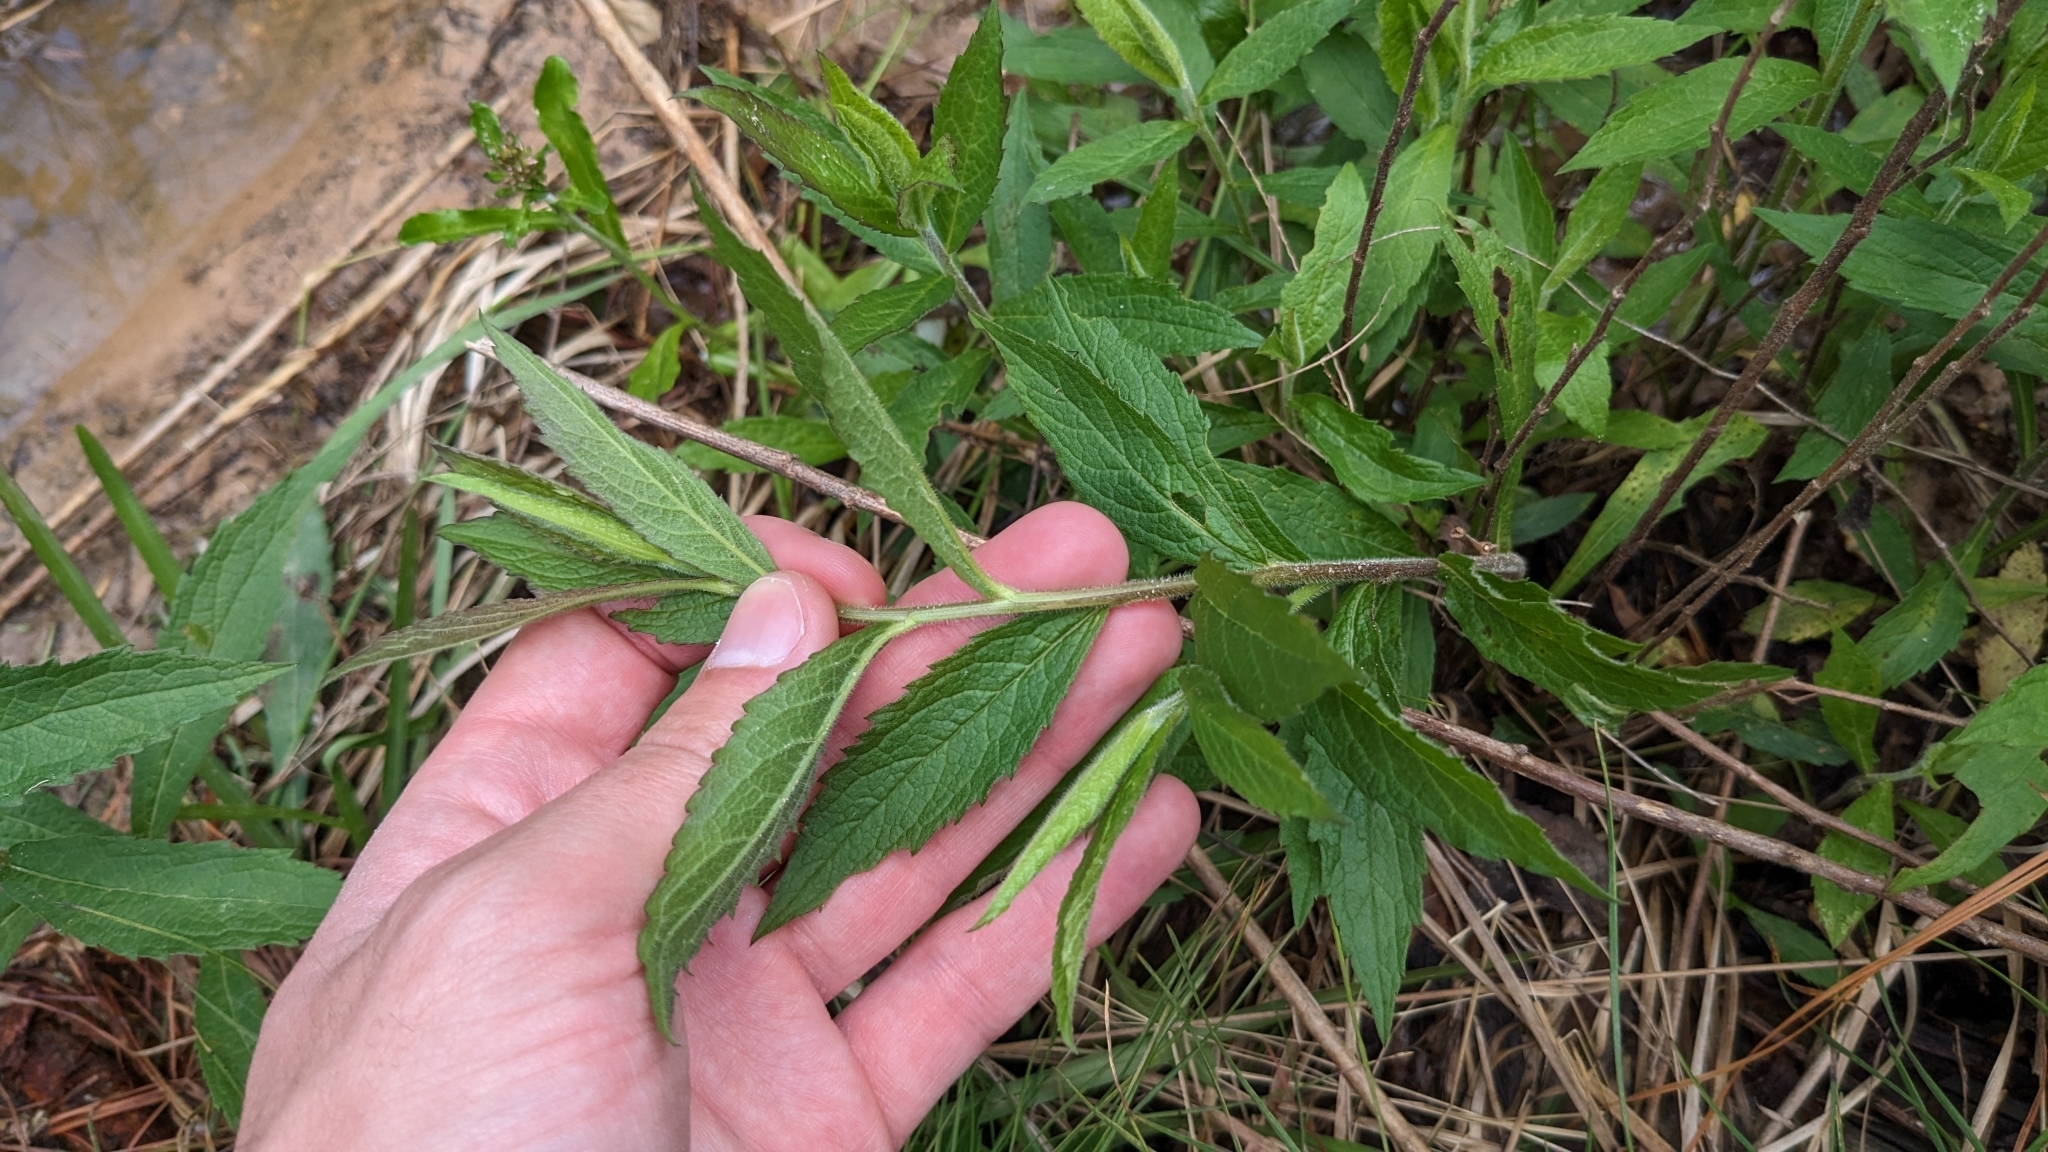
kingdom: Plantae
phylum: Tracheophyta
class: Magnoliopsida
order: Asterales
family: Asteraceae
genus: Solidago
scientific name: Solidago rugosa
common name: Rough-stemmed goldenrod
